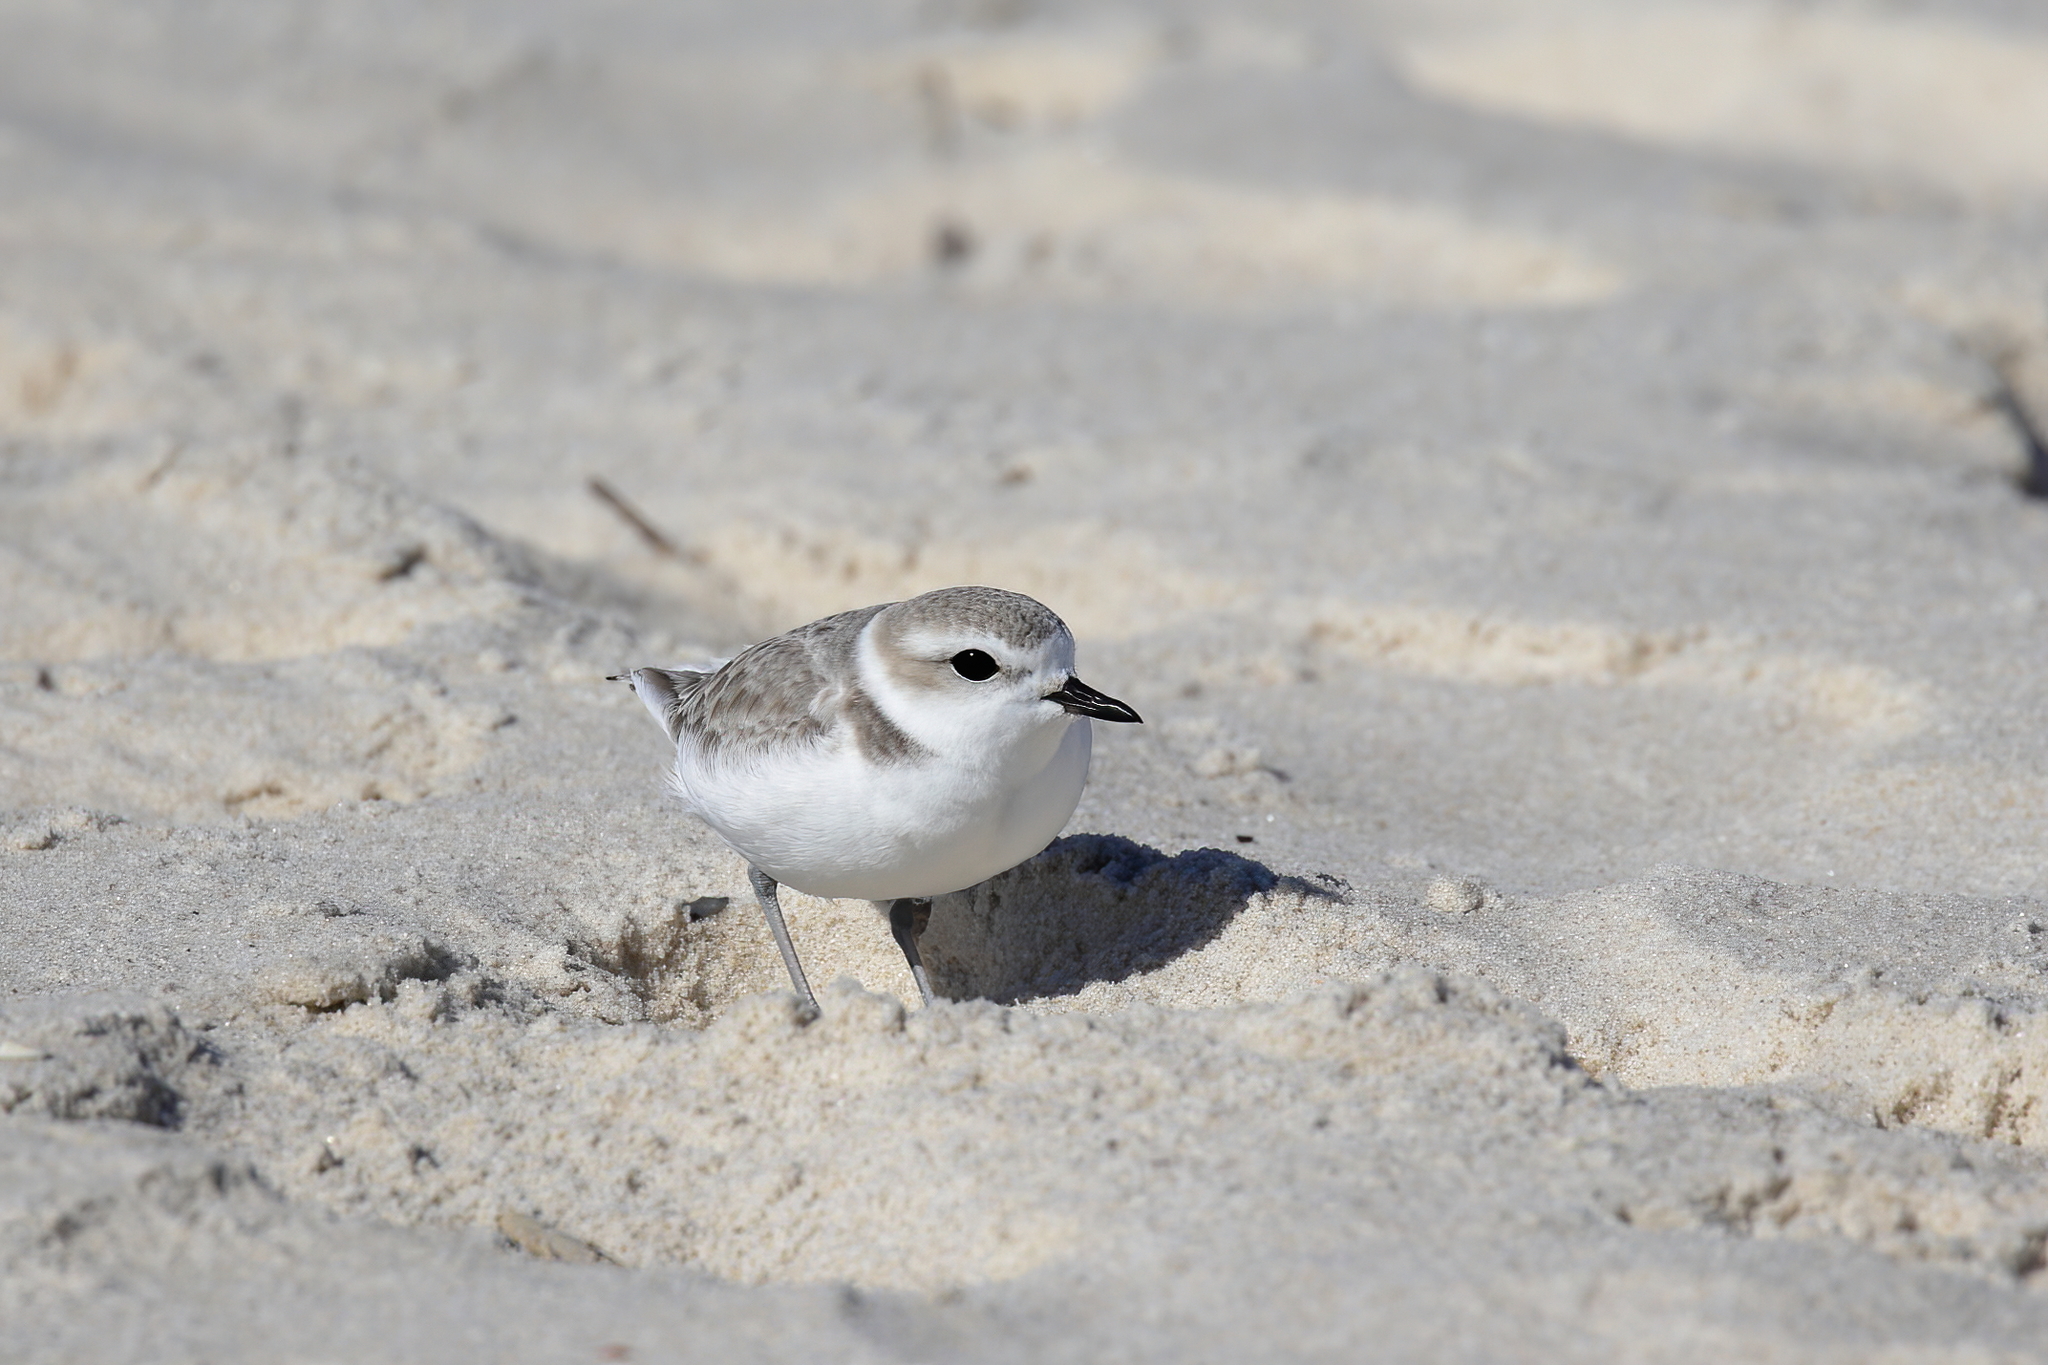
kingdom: Animalia
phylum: Chordata
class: Aves
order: Charadriiformes
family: Charadriidae
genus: Anarhynchus
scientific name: Anarhynchus
